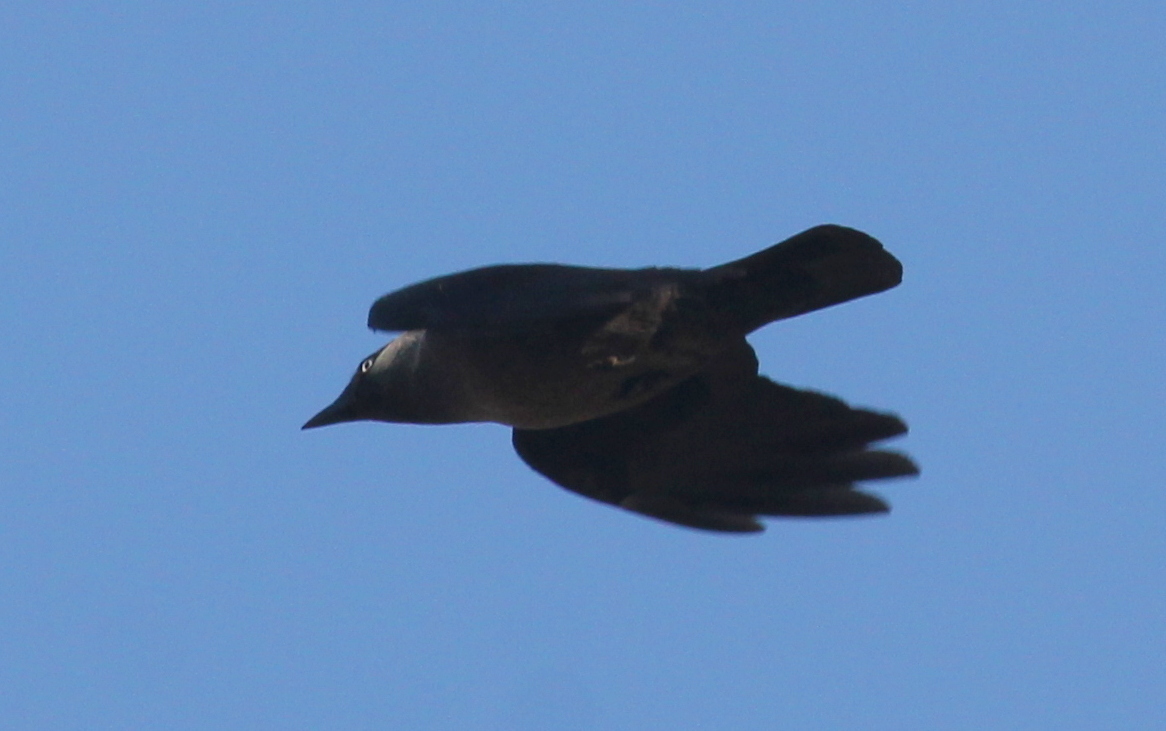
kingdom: Animalia
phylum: Chordata
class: Aves
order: Passeriformes
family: Corvidae
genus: Coloeus
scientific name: Coloeus monedula
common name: Western jackdaw
